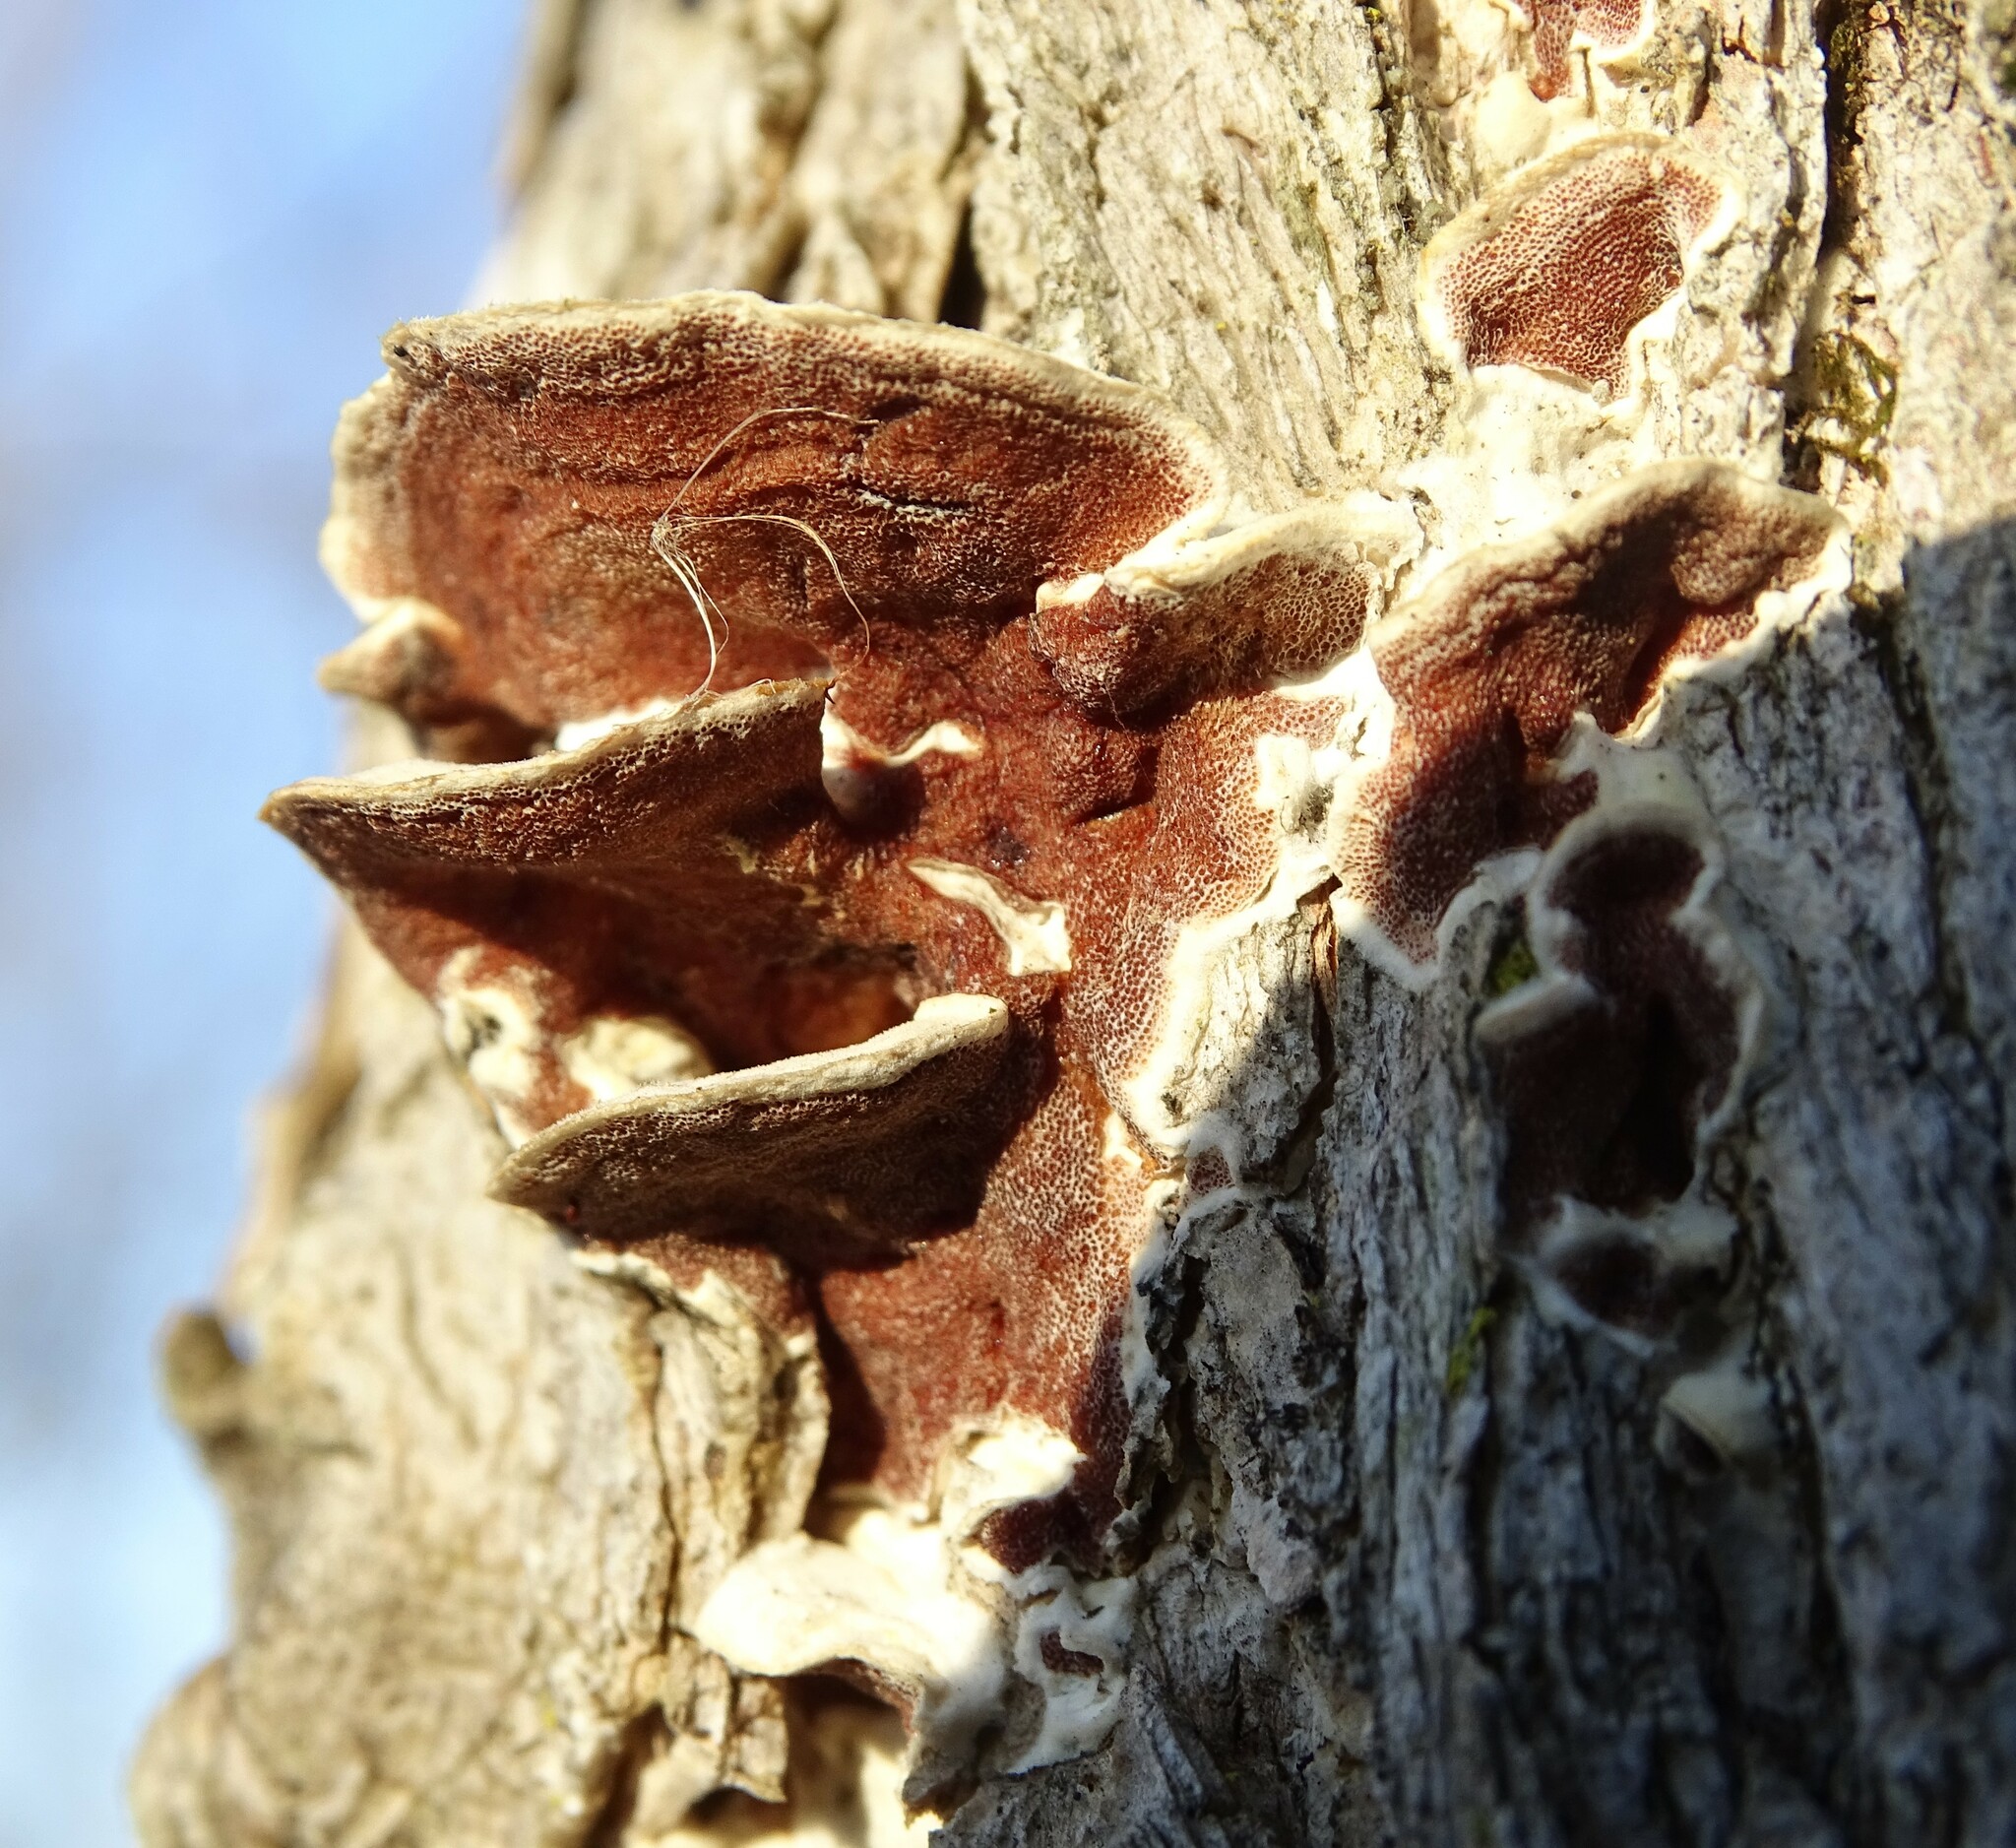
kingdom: Fungi
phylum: Basidiomycota
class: Agaricomycetes
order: Polyporales
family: Irpicaceae
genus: Vitreoporus
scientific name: Vitreoporus dichrous
